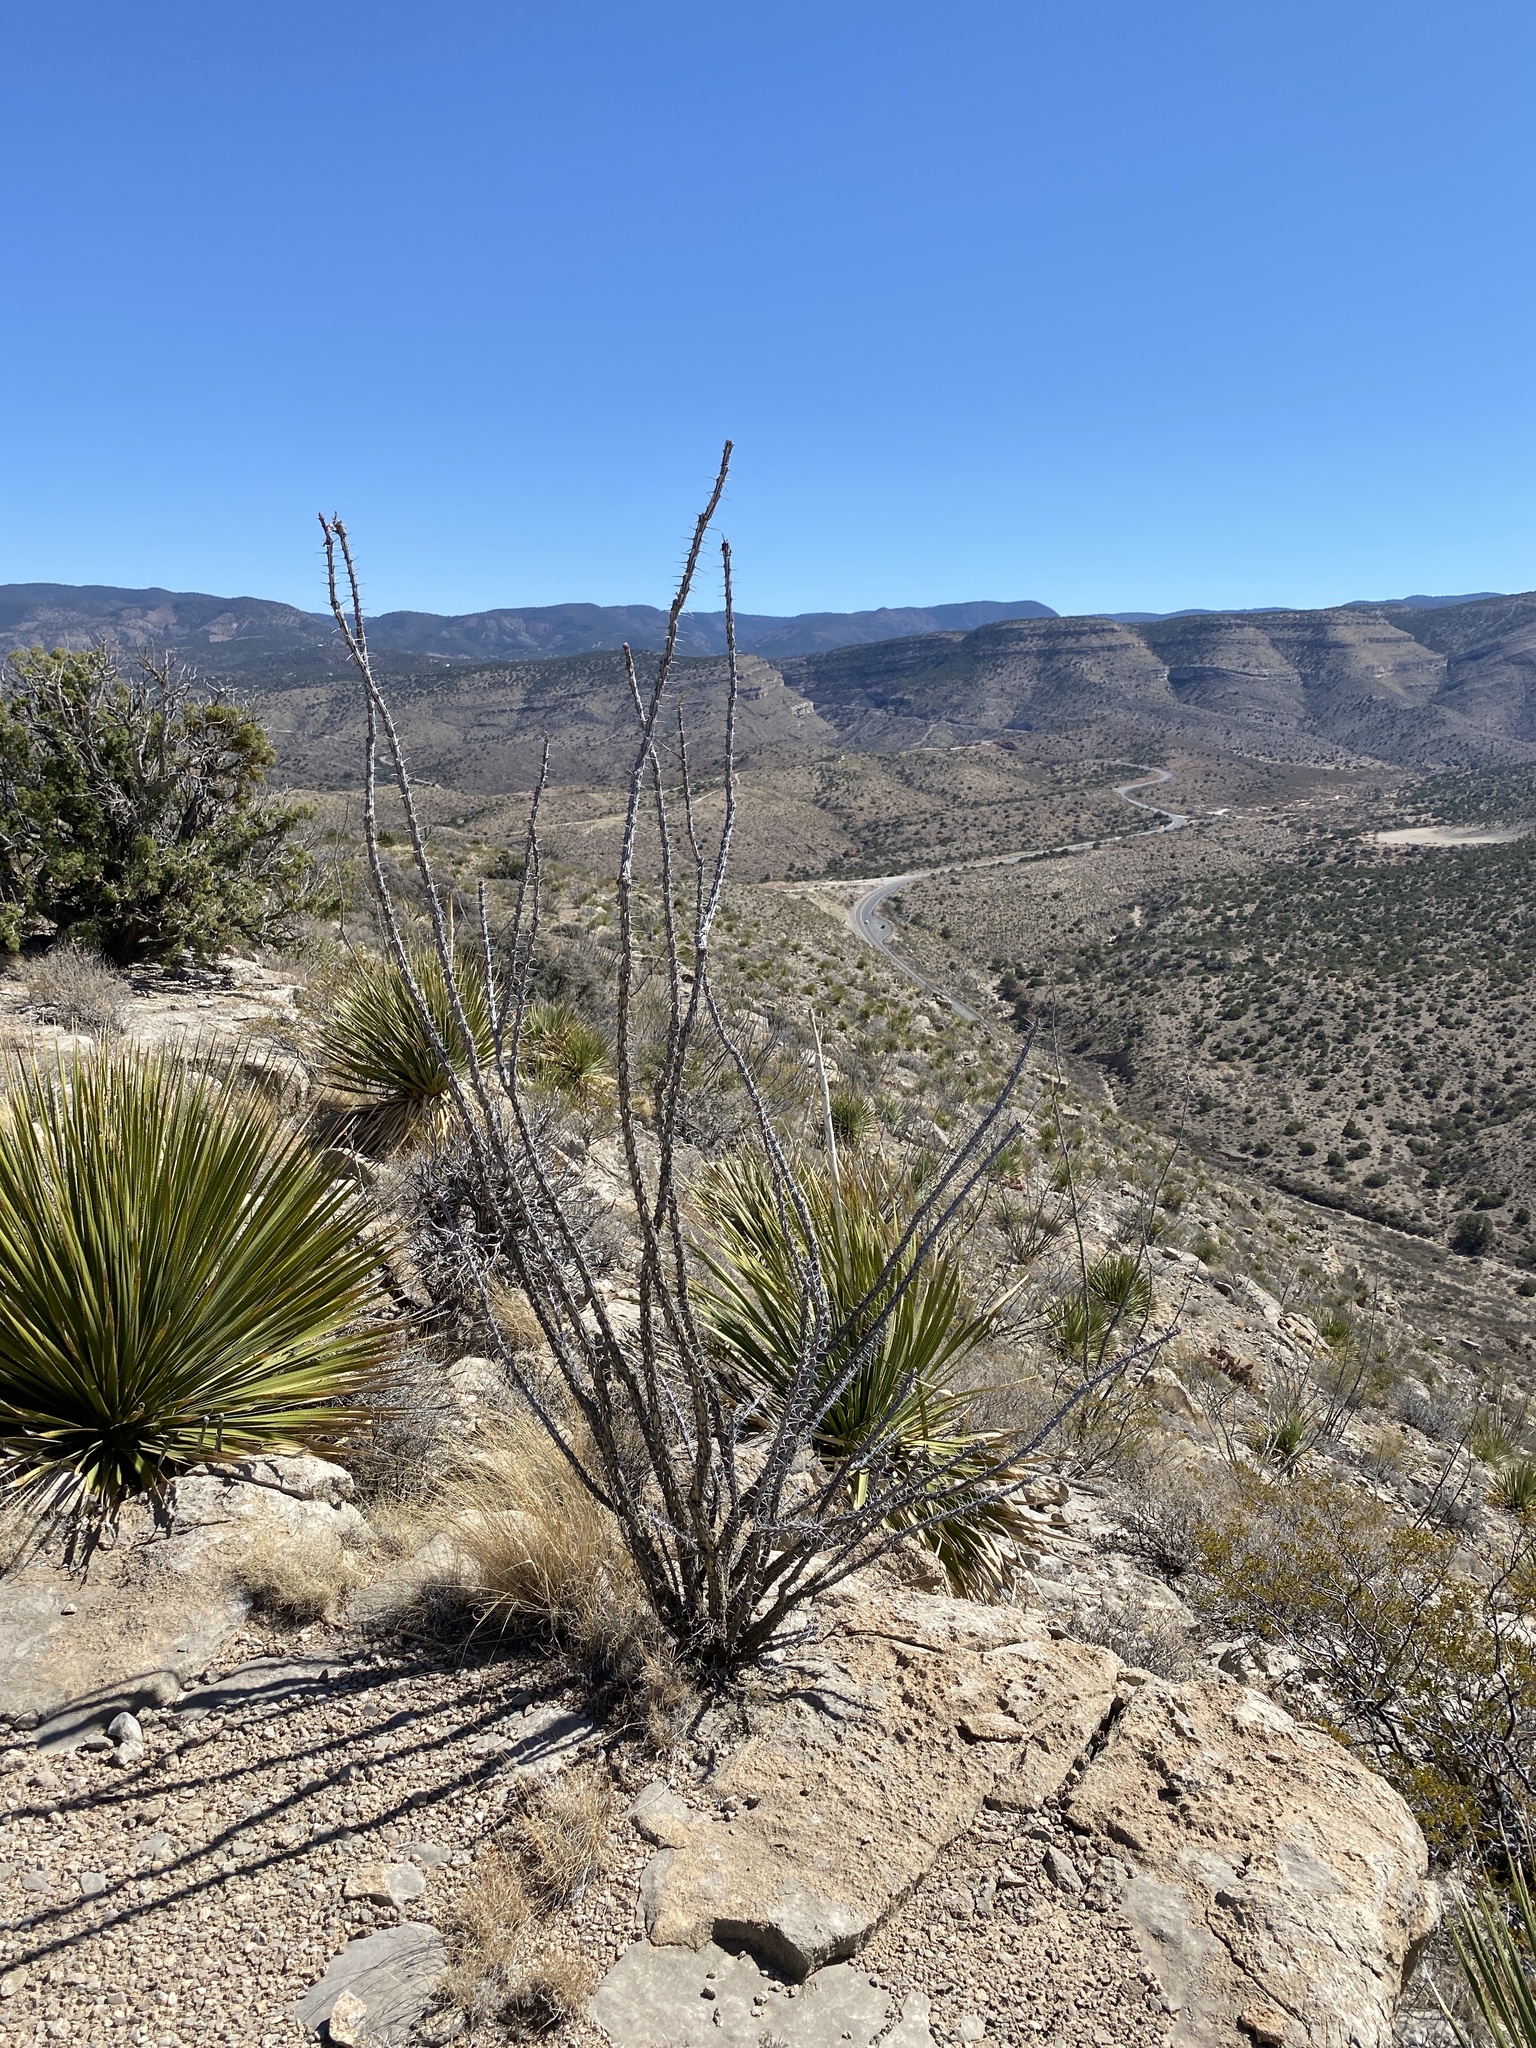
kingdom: Plantae
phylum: Tracheophyta
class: Magnoliopsida
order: Ericales
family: Fouquieriaceae
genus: Fouquieria
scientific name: Fouquieria splendens
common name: Vine-cactus
